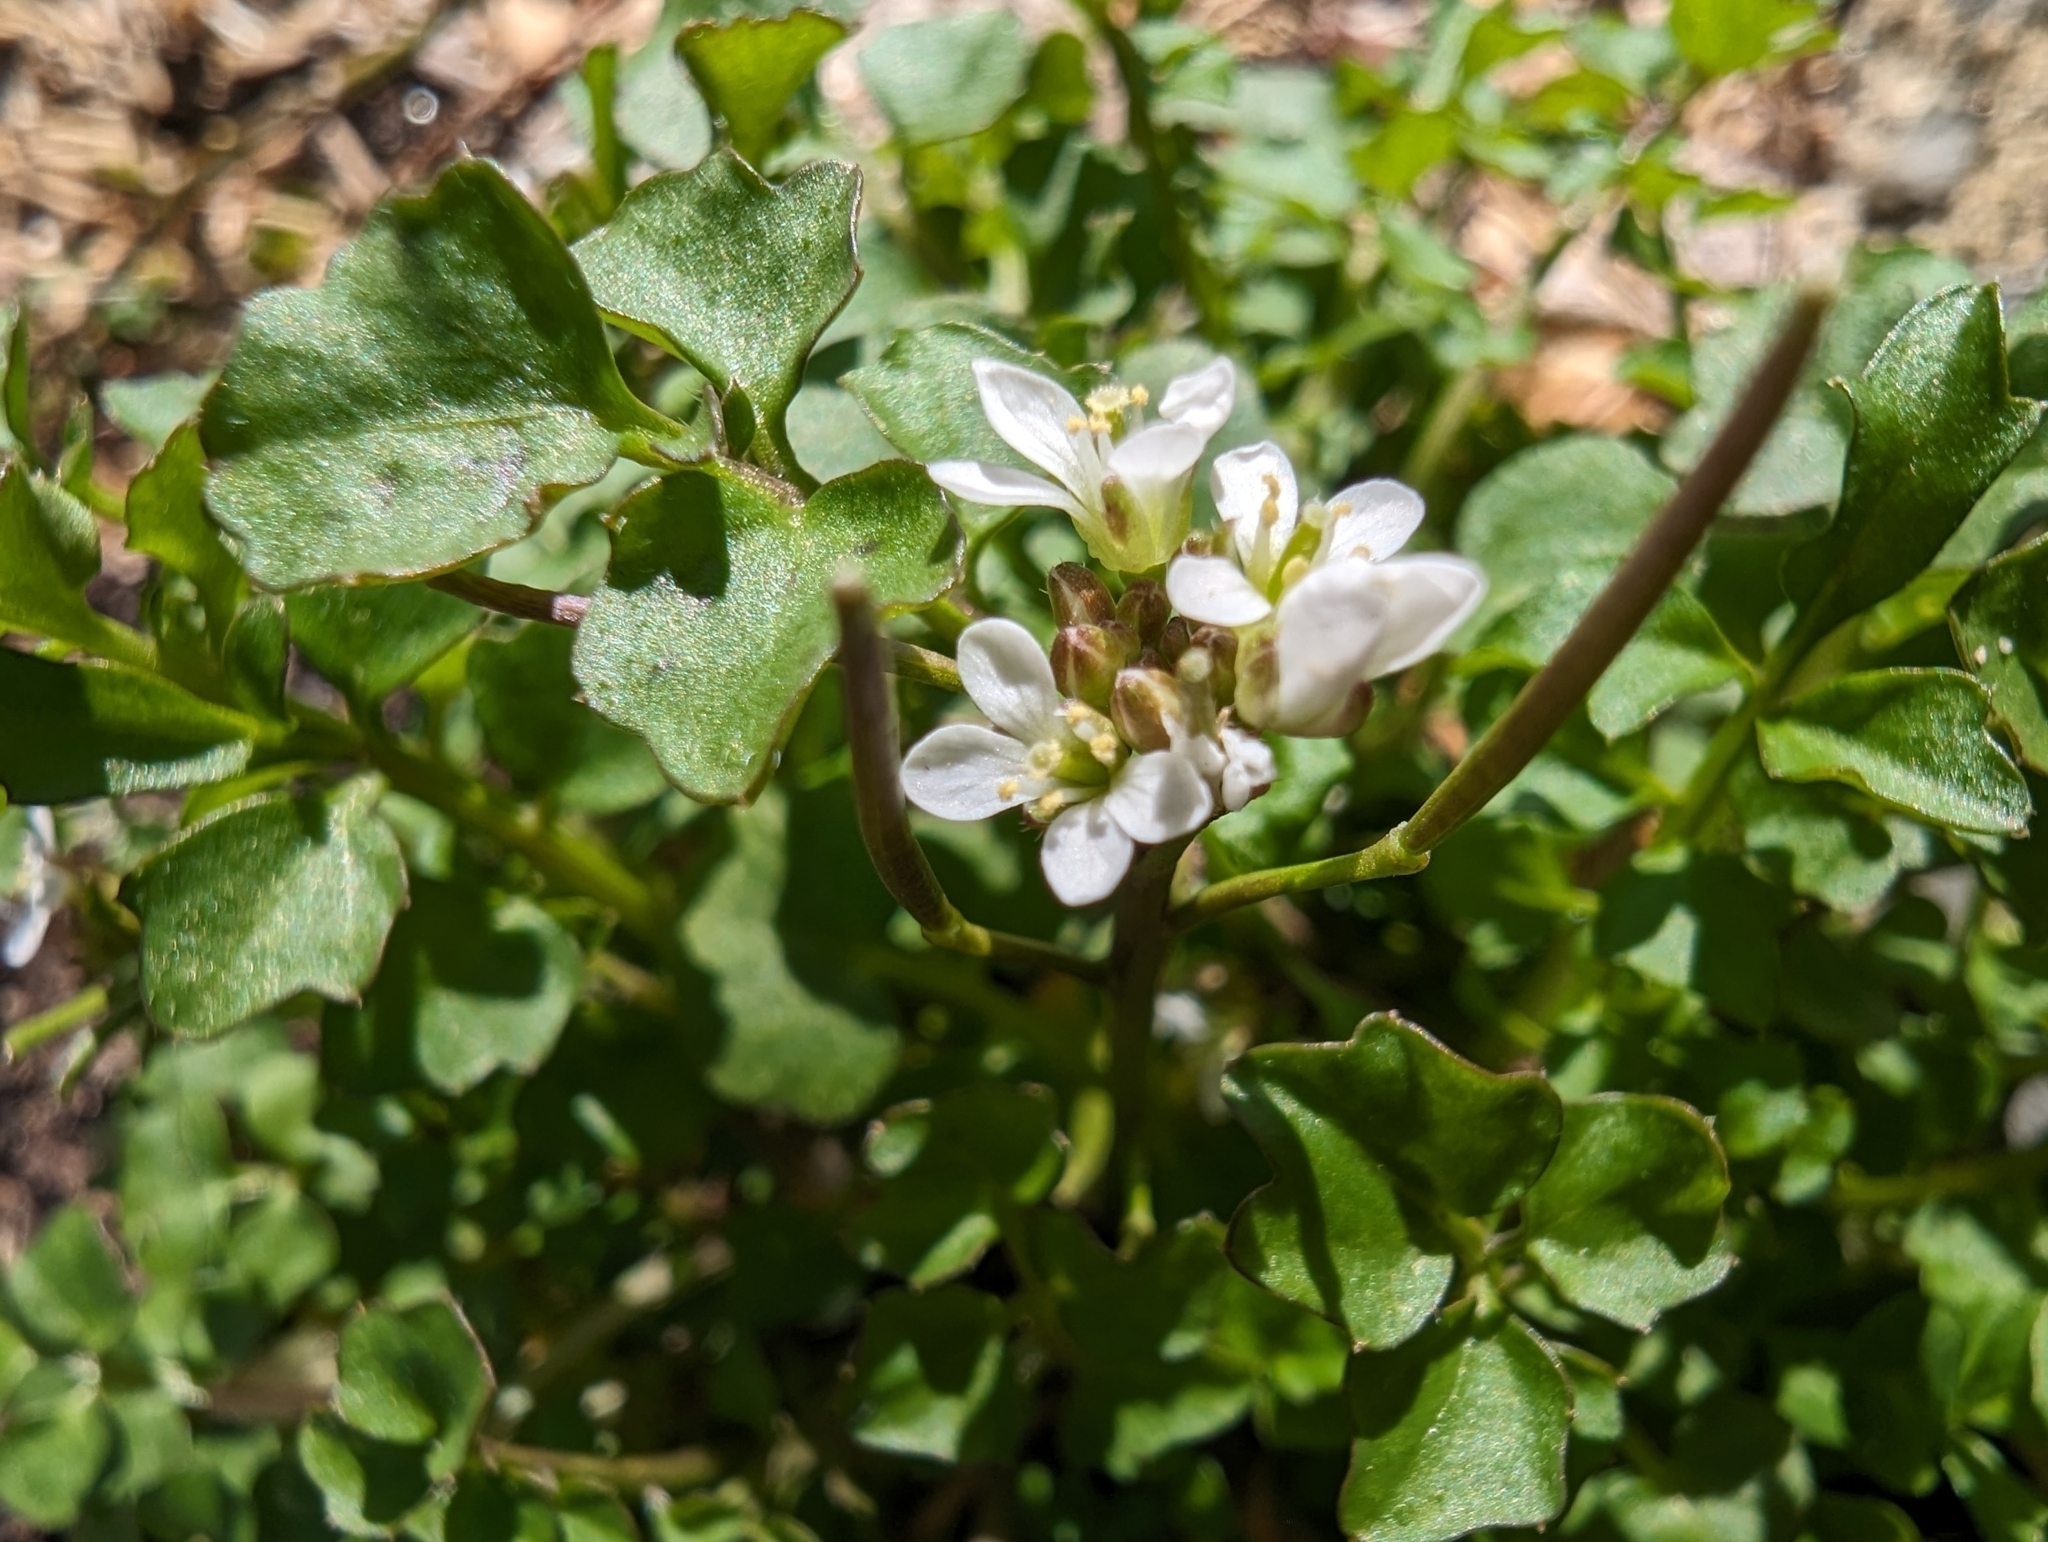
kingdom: Plantae
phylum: Tracheophyta
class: Magnoliopsida
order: Brassicales
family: Brassicaceae
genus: Cardamine
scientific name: Cardamine hirsuta
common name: Hairy bittercress
